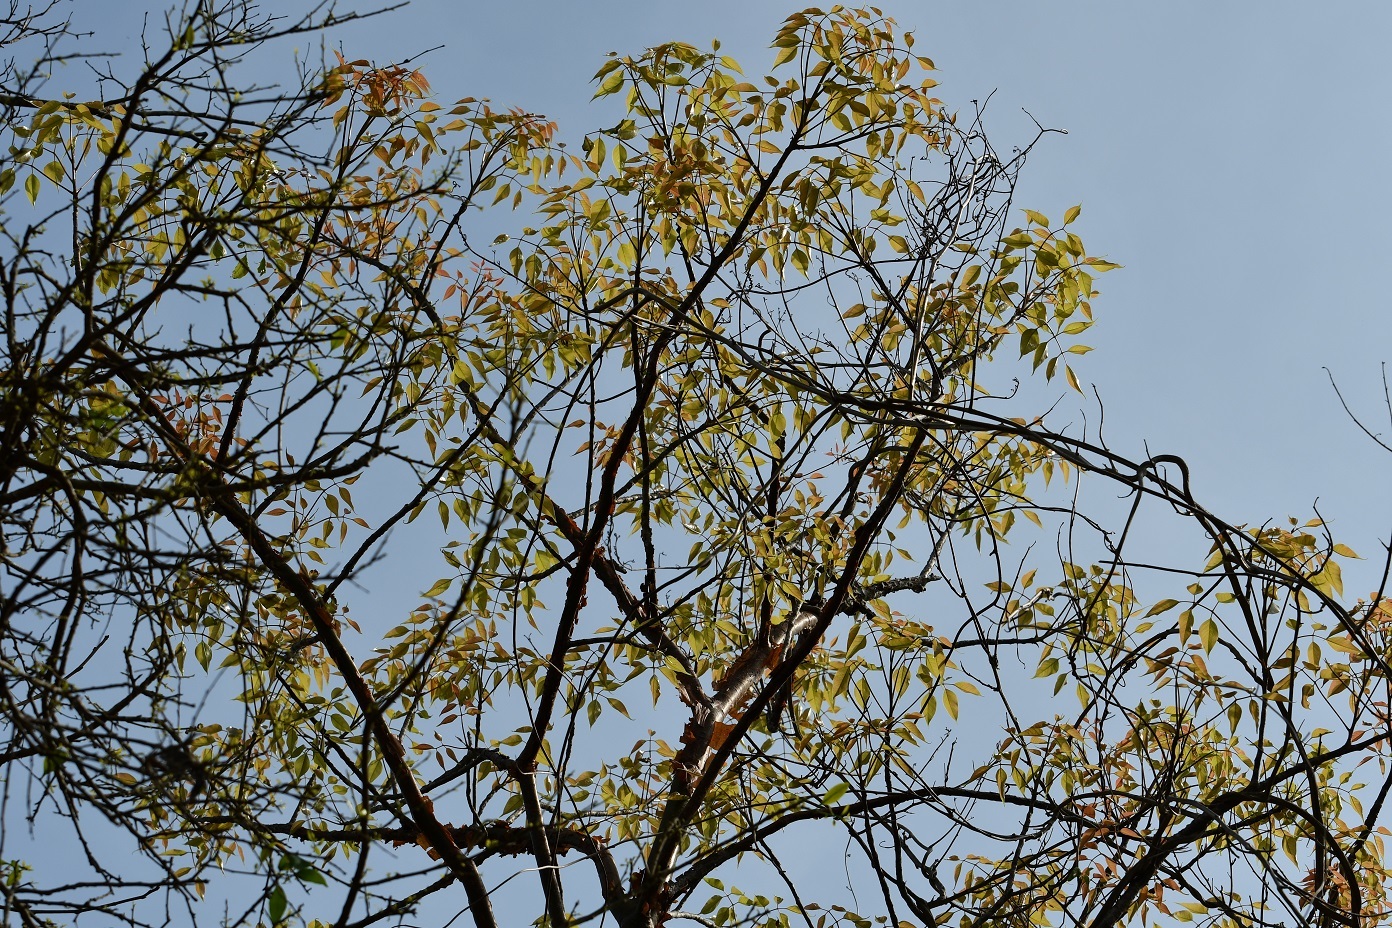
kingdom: Plantae
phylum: Tracheophyta
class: Magnoliopsida
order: Sapindales
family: Burseraceae
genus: Bursera
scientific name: Bursera simaruba
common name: Turpentine tree
